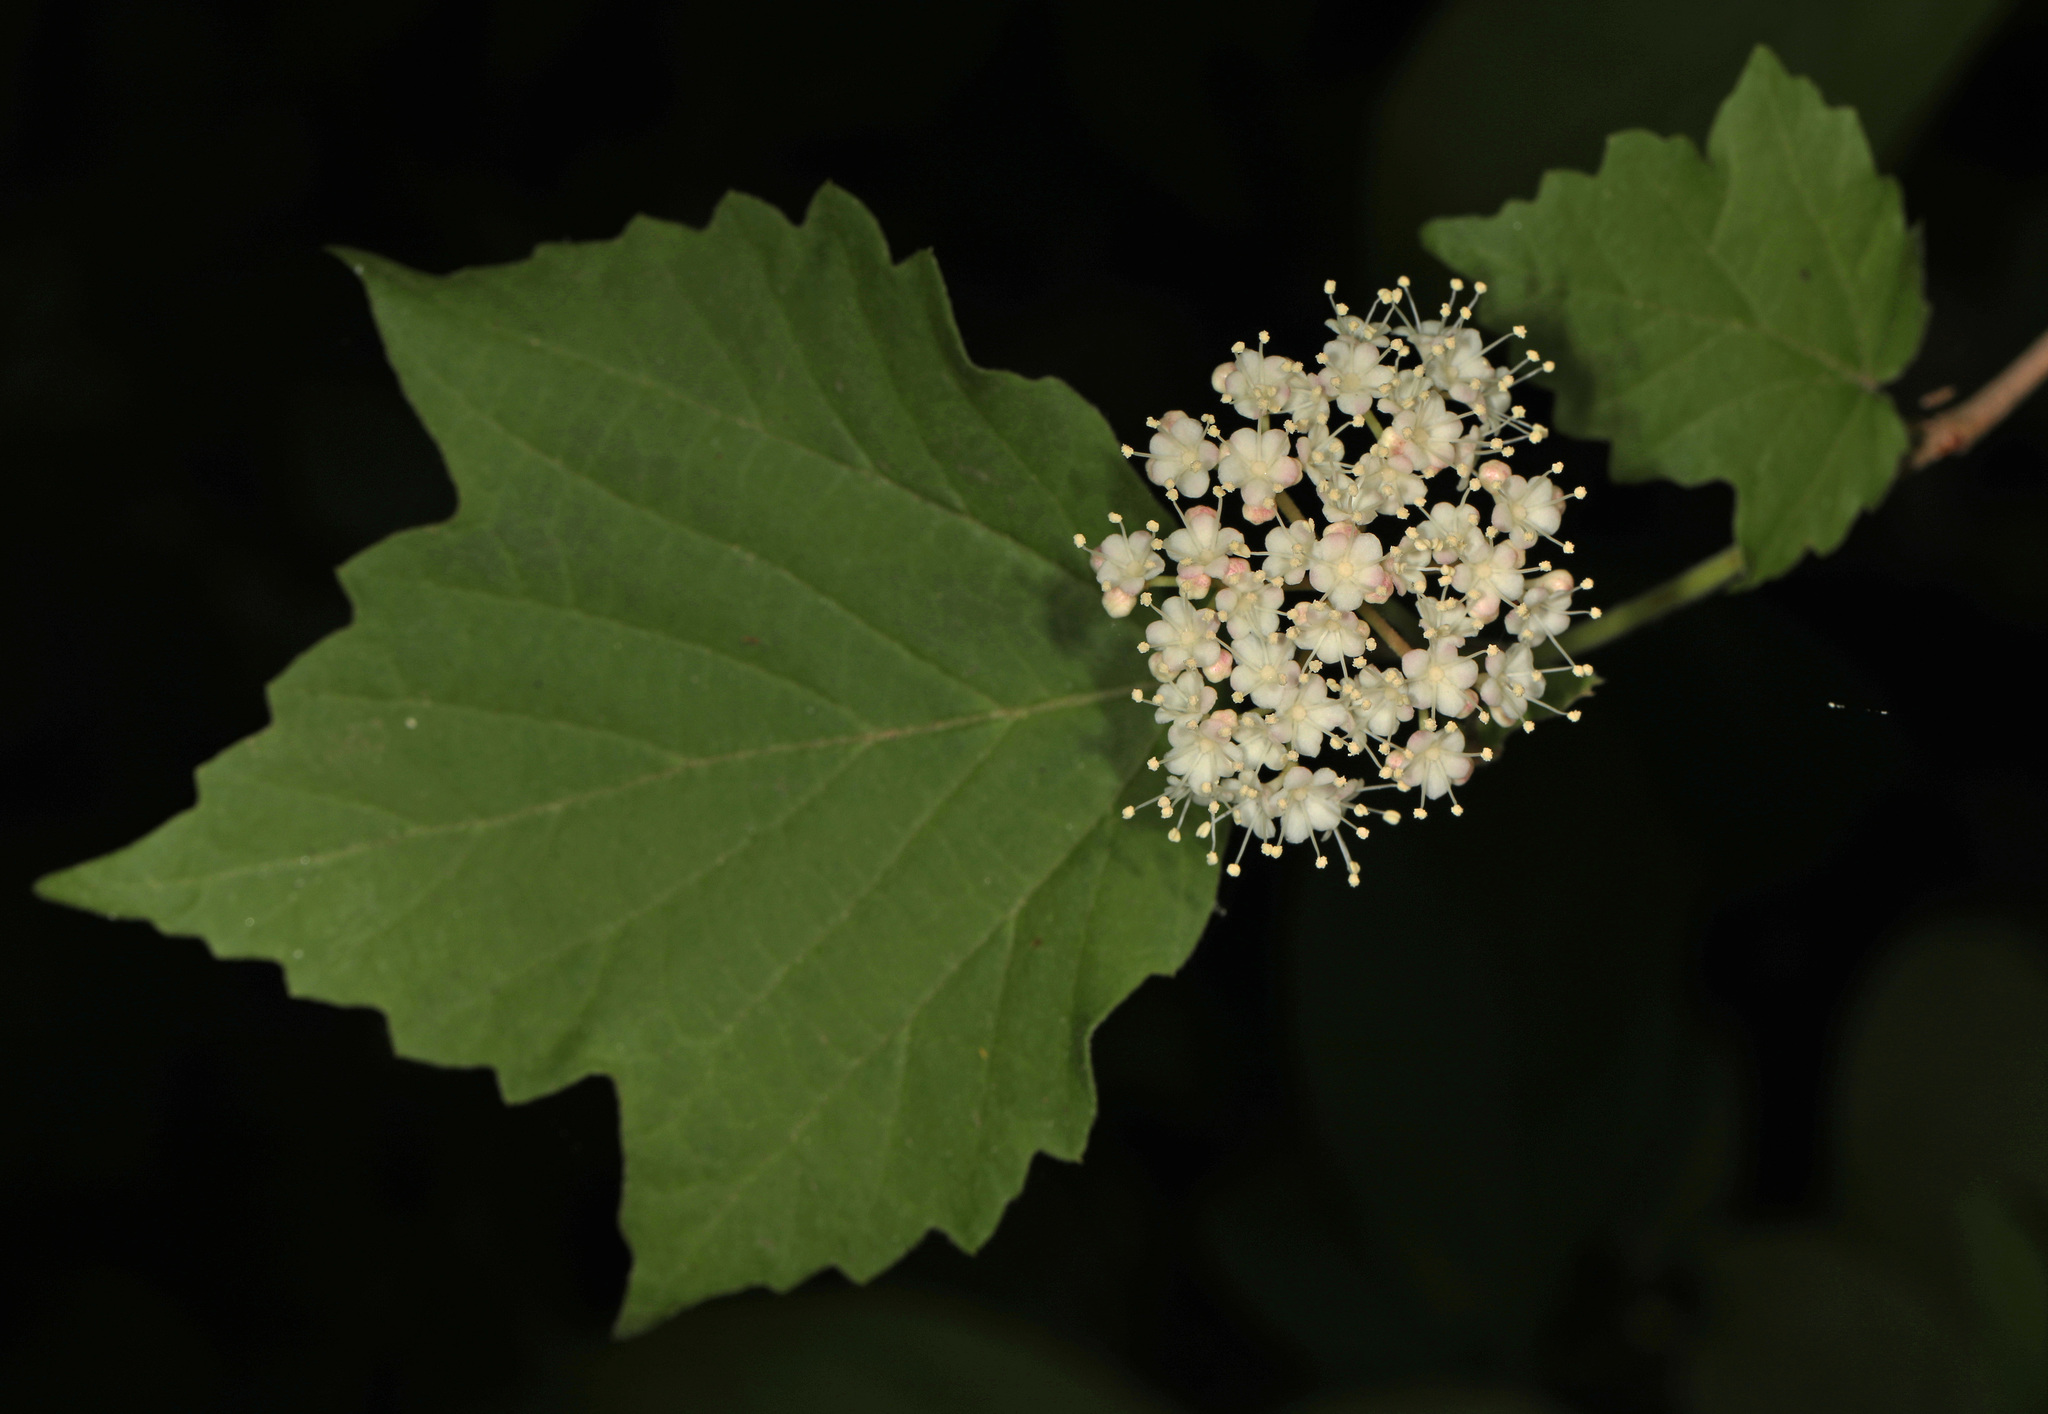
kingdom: Plantae
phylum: Tracheophyta
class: Magnoliopsida
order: Dipsacales
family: Viburnaceae
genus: Viburnum
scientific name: Viburnum acerifolium
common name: Dockmackie
